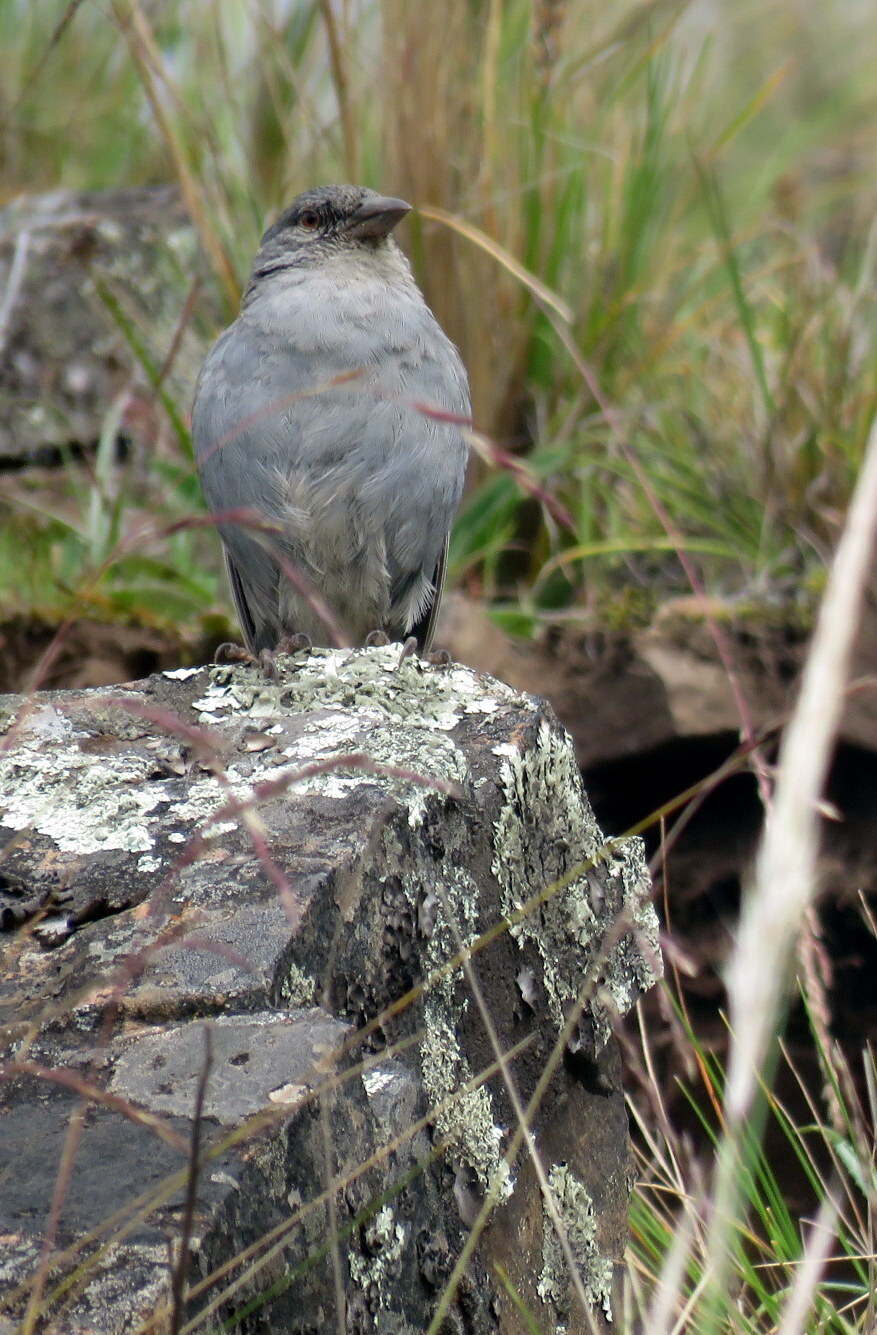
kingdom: Animalia
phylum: Chordata
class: Aves
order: Passeriformes
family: Thraupidae
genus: Idiopsar
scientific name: Idiopsar brachyurus
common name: Short-tailed finch
